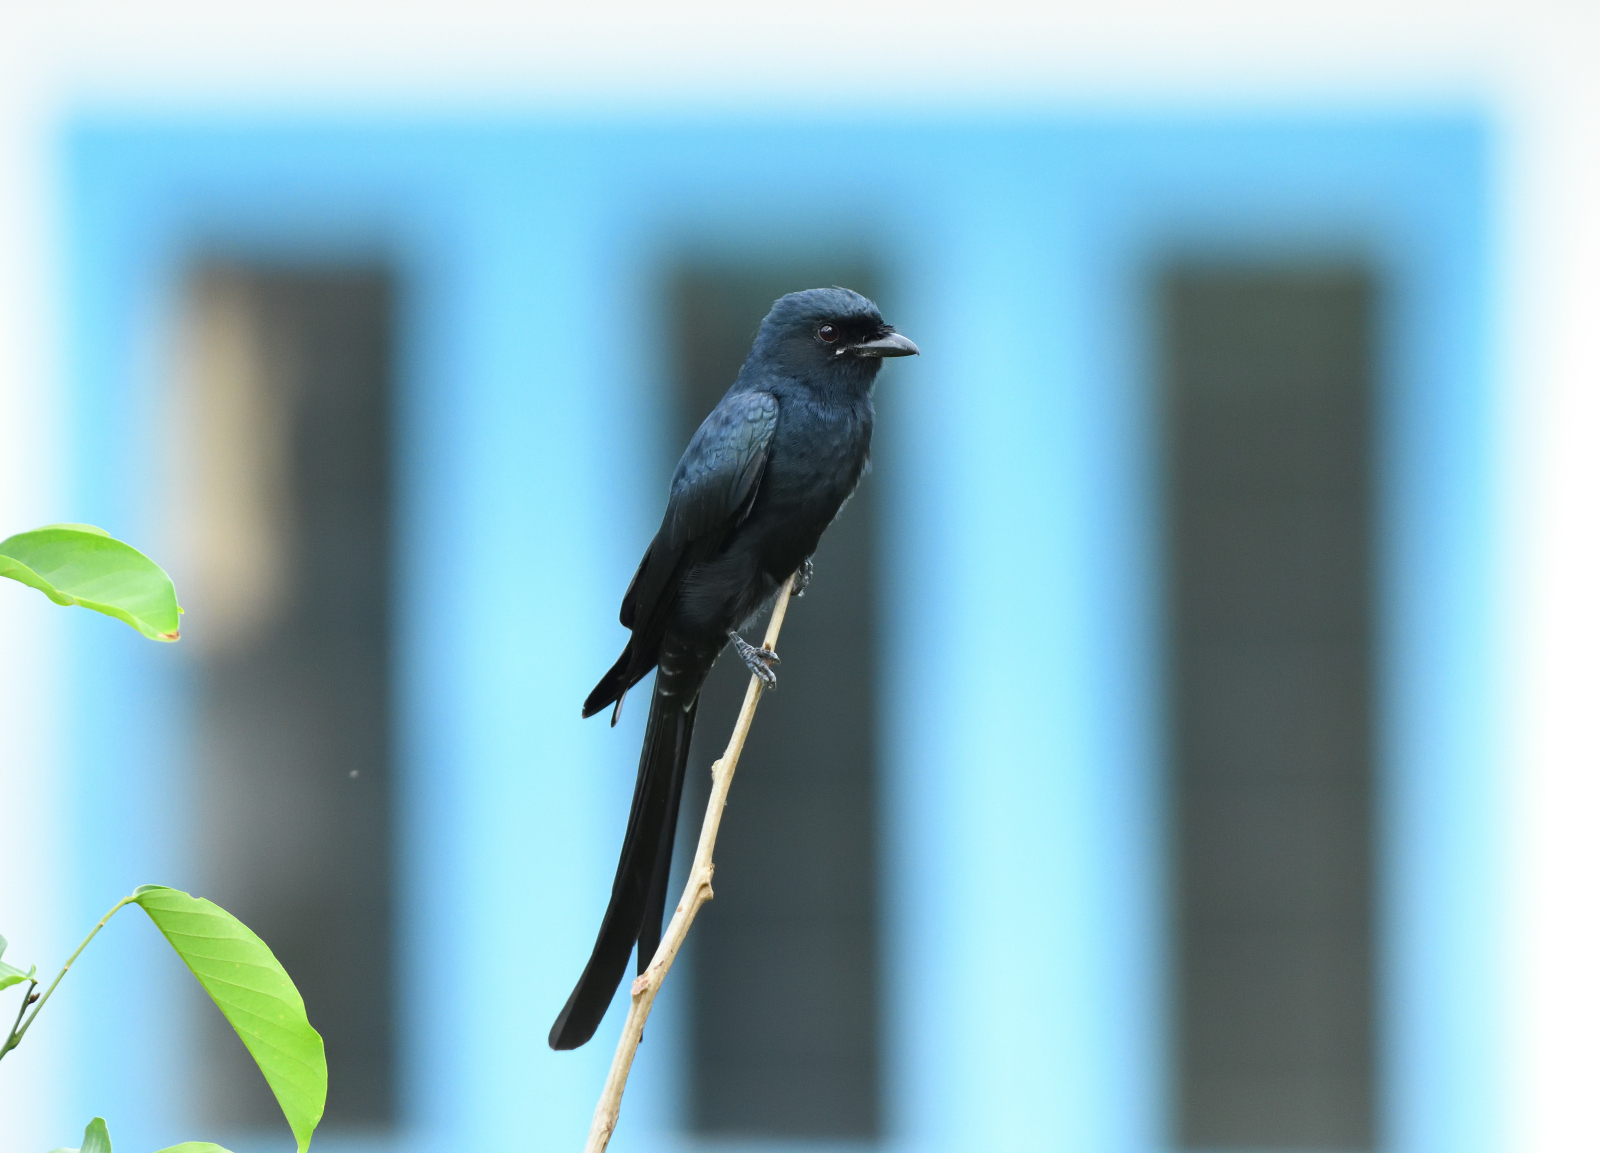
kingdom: Animalia
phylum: Chordata
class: Aves
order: Passeriformes
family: Dicruridae
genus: Dicrurus
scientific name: Dicrurus macrocercus
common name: Black drongo
